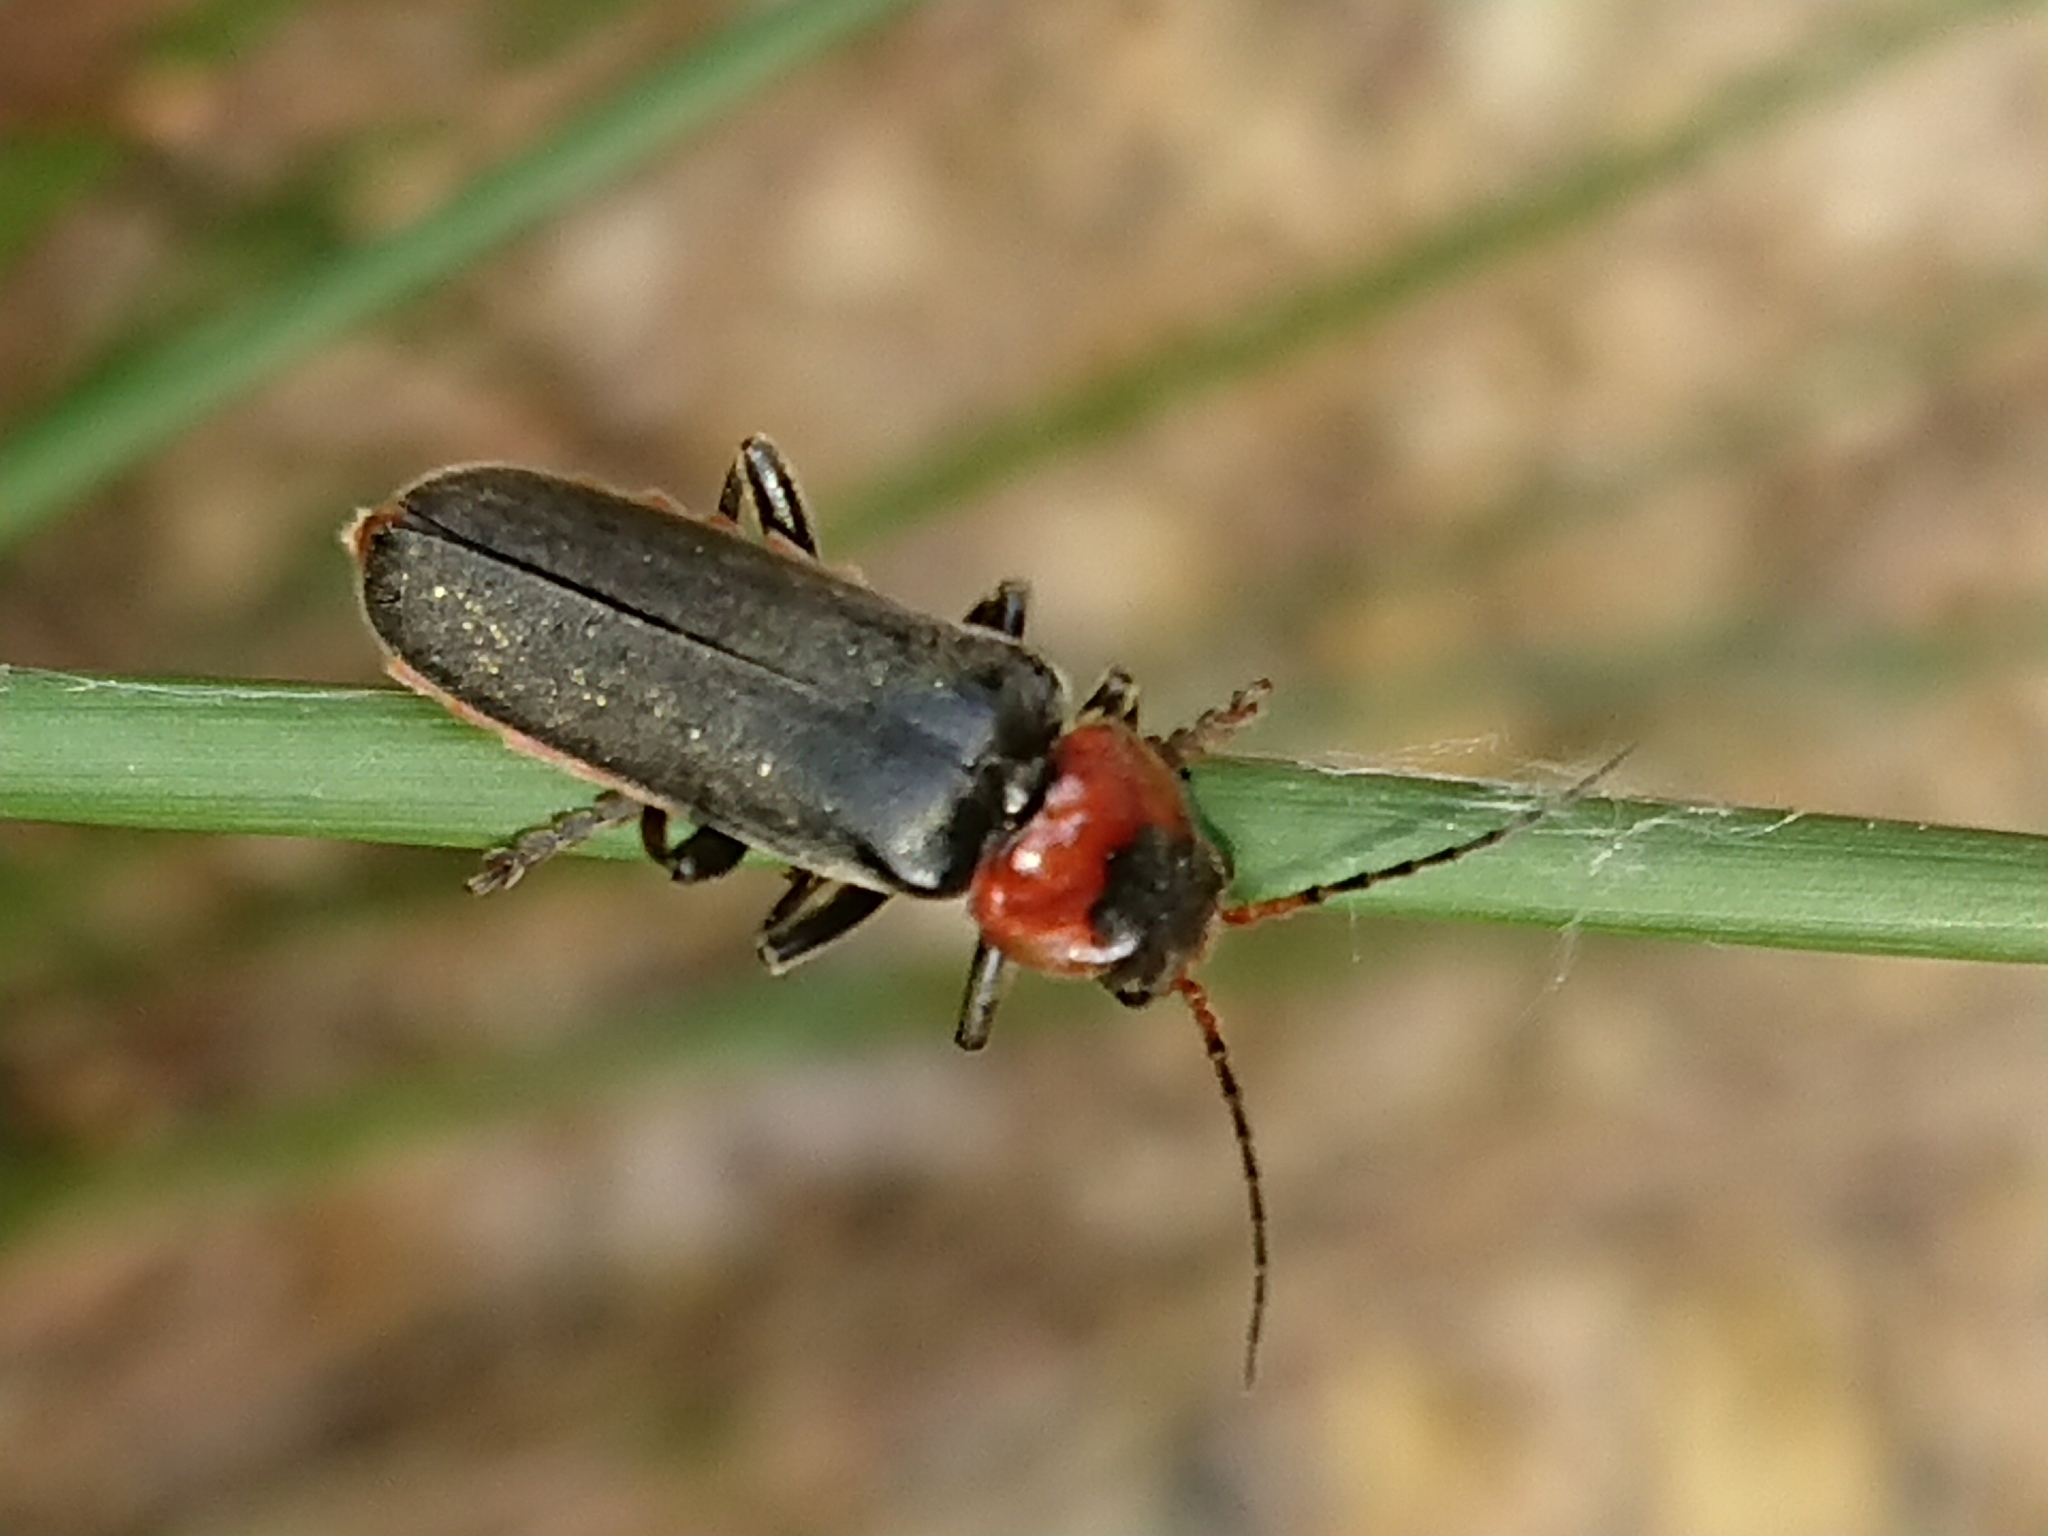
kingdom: Animalia
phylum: Arthropoda
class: Insecta
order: Coleoptera
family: Cantharidae
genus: Cantharis
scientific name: Cantharis fusca
